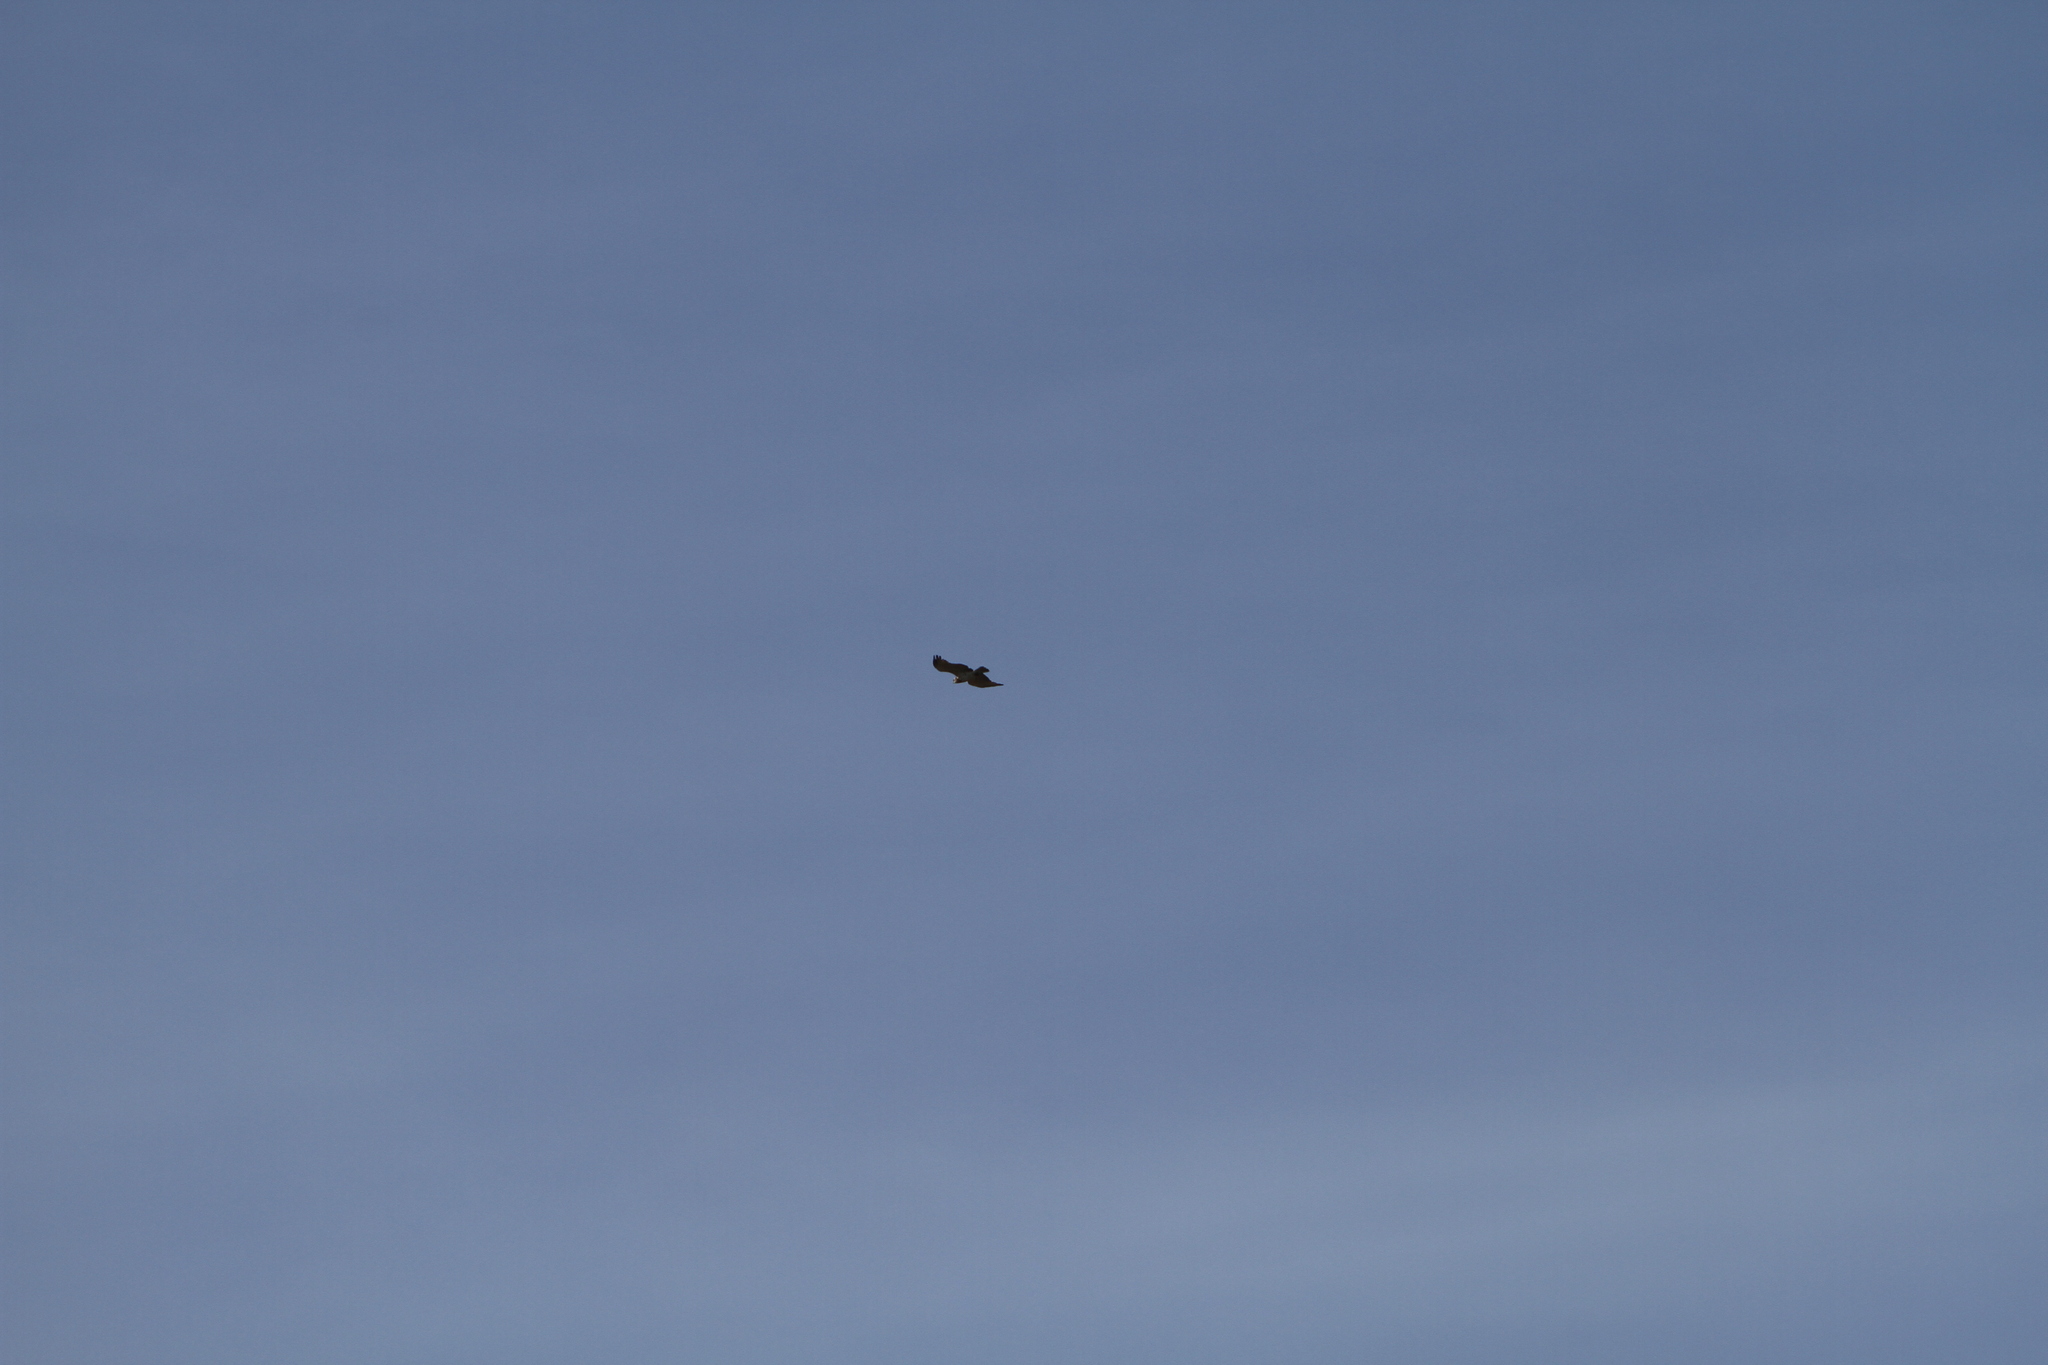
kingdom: Animalia
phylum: Chordata
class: Aves
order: Accipitriformes
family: Accipitridae
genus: Circaetus
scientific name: Circaetus gallicus
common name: Short-toed snake eagle
